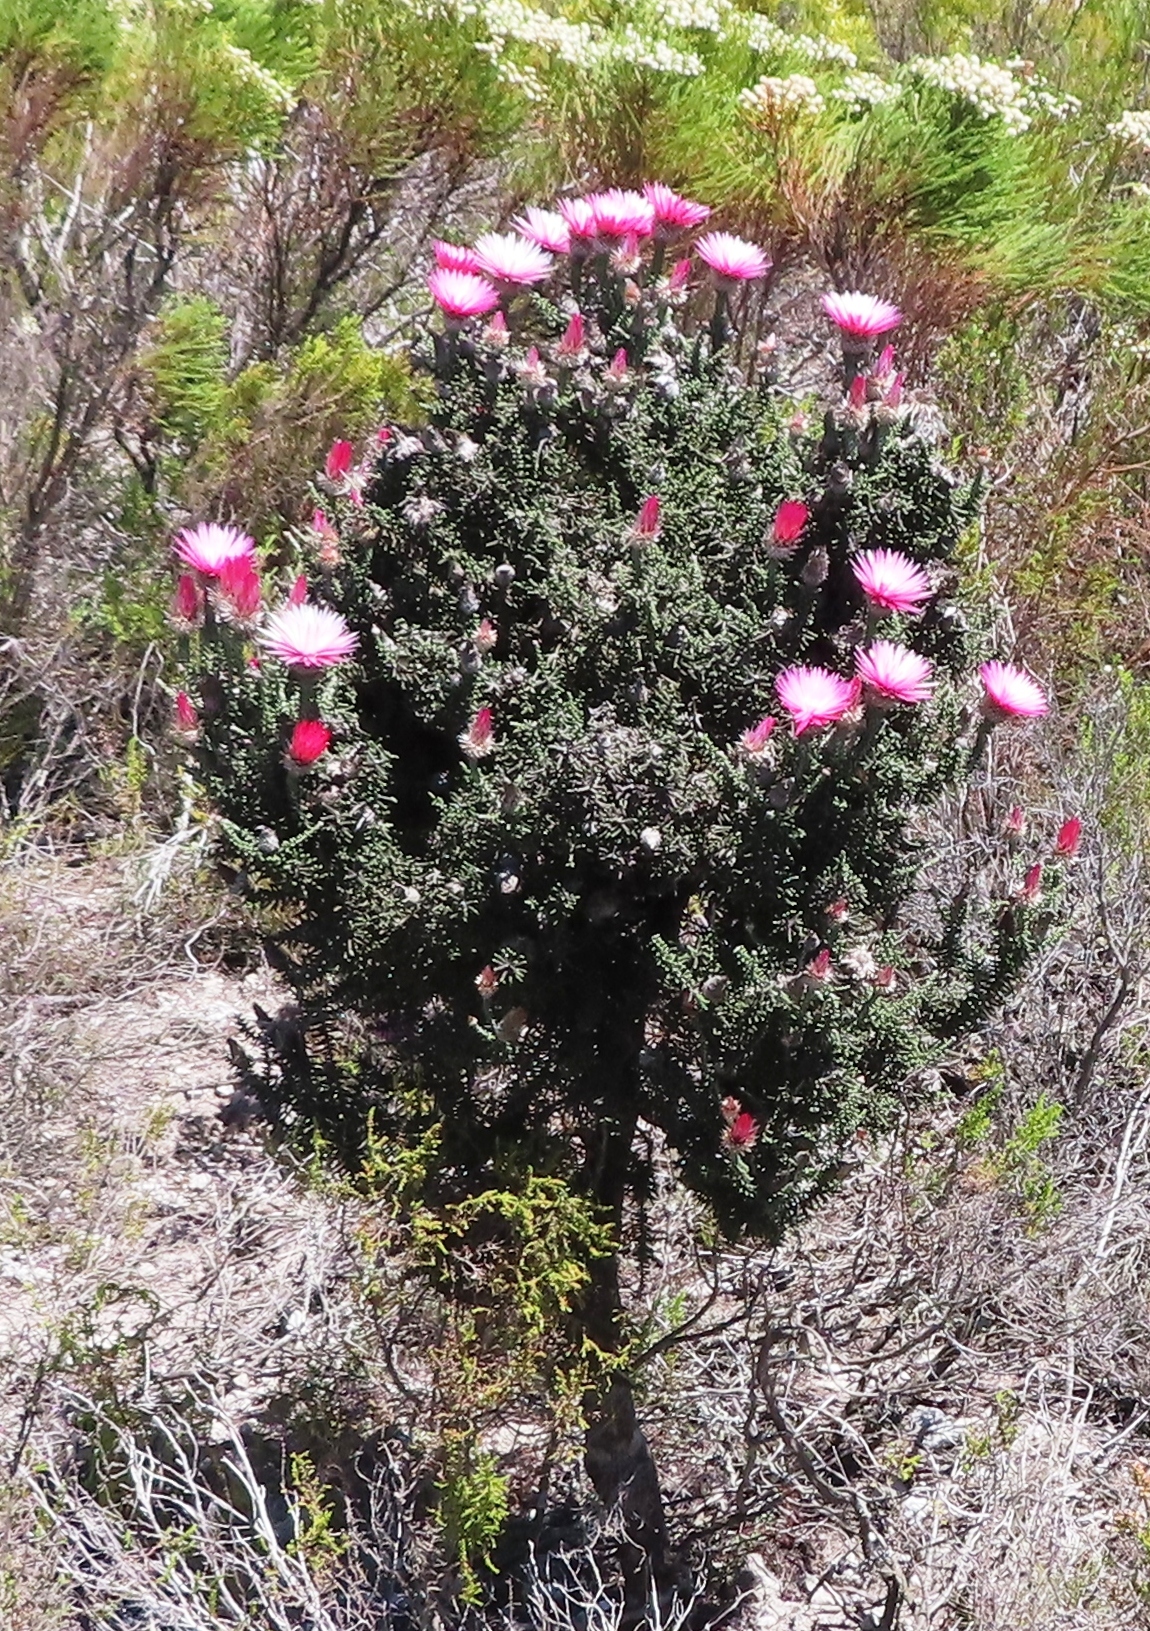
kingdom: Plantae
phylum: Tracheophyta
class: Magnoliopsida
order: Asterales
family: Asteraceae
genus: Phaenocoma
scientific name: Phaenocoma prolifera
